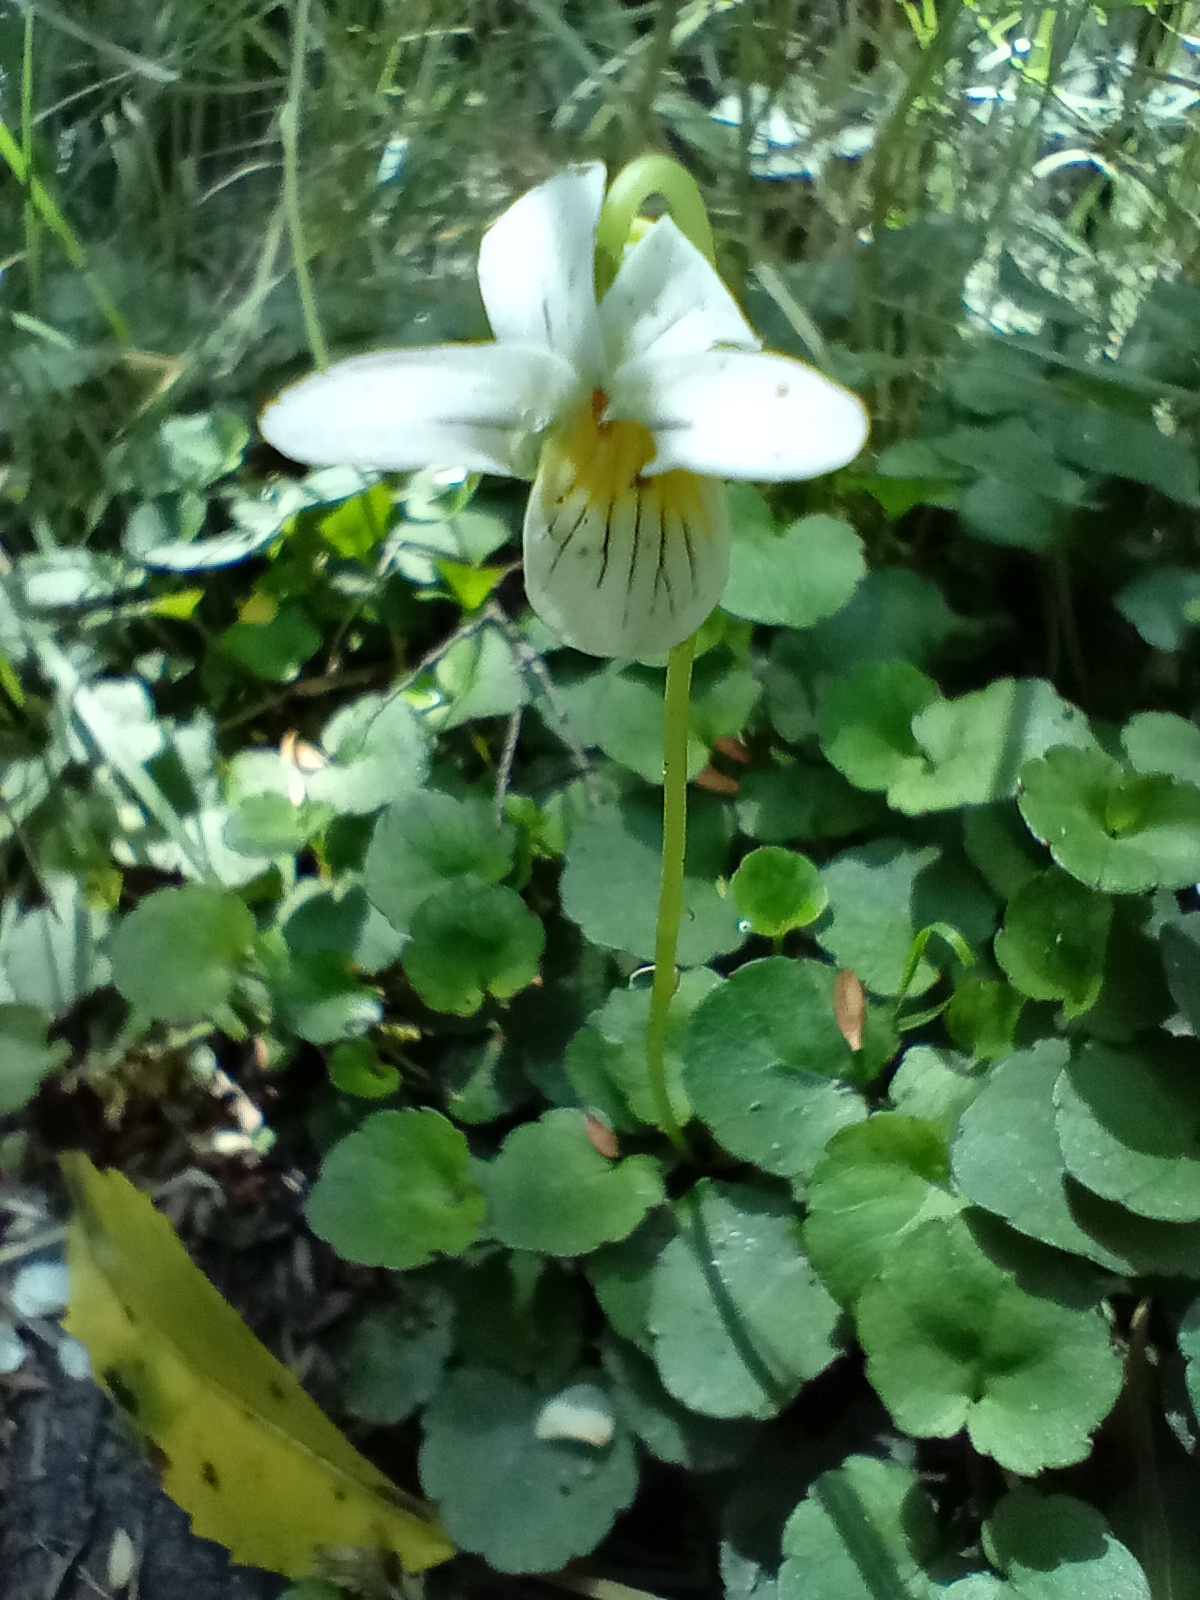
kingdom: Plantae
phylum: Tracheophyta
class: Magnoliopsida
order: Malpighiales
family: Violaceae
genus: Viola
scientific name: Viola filicaulis
